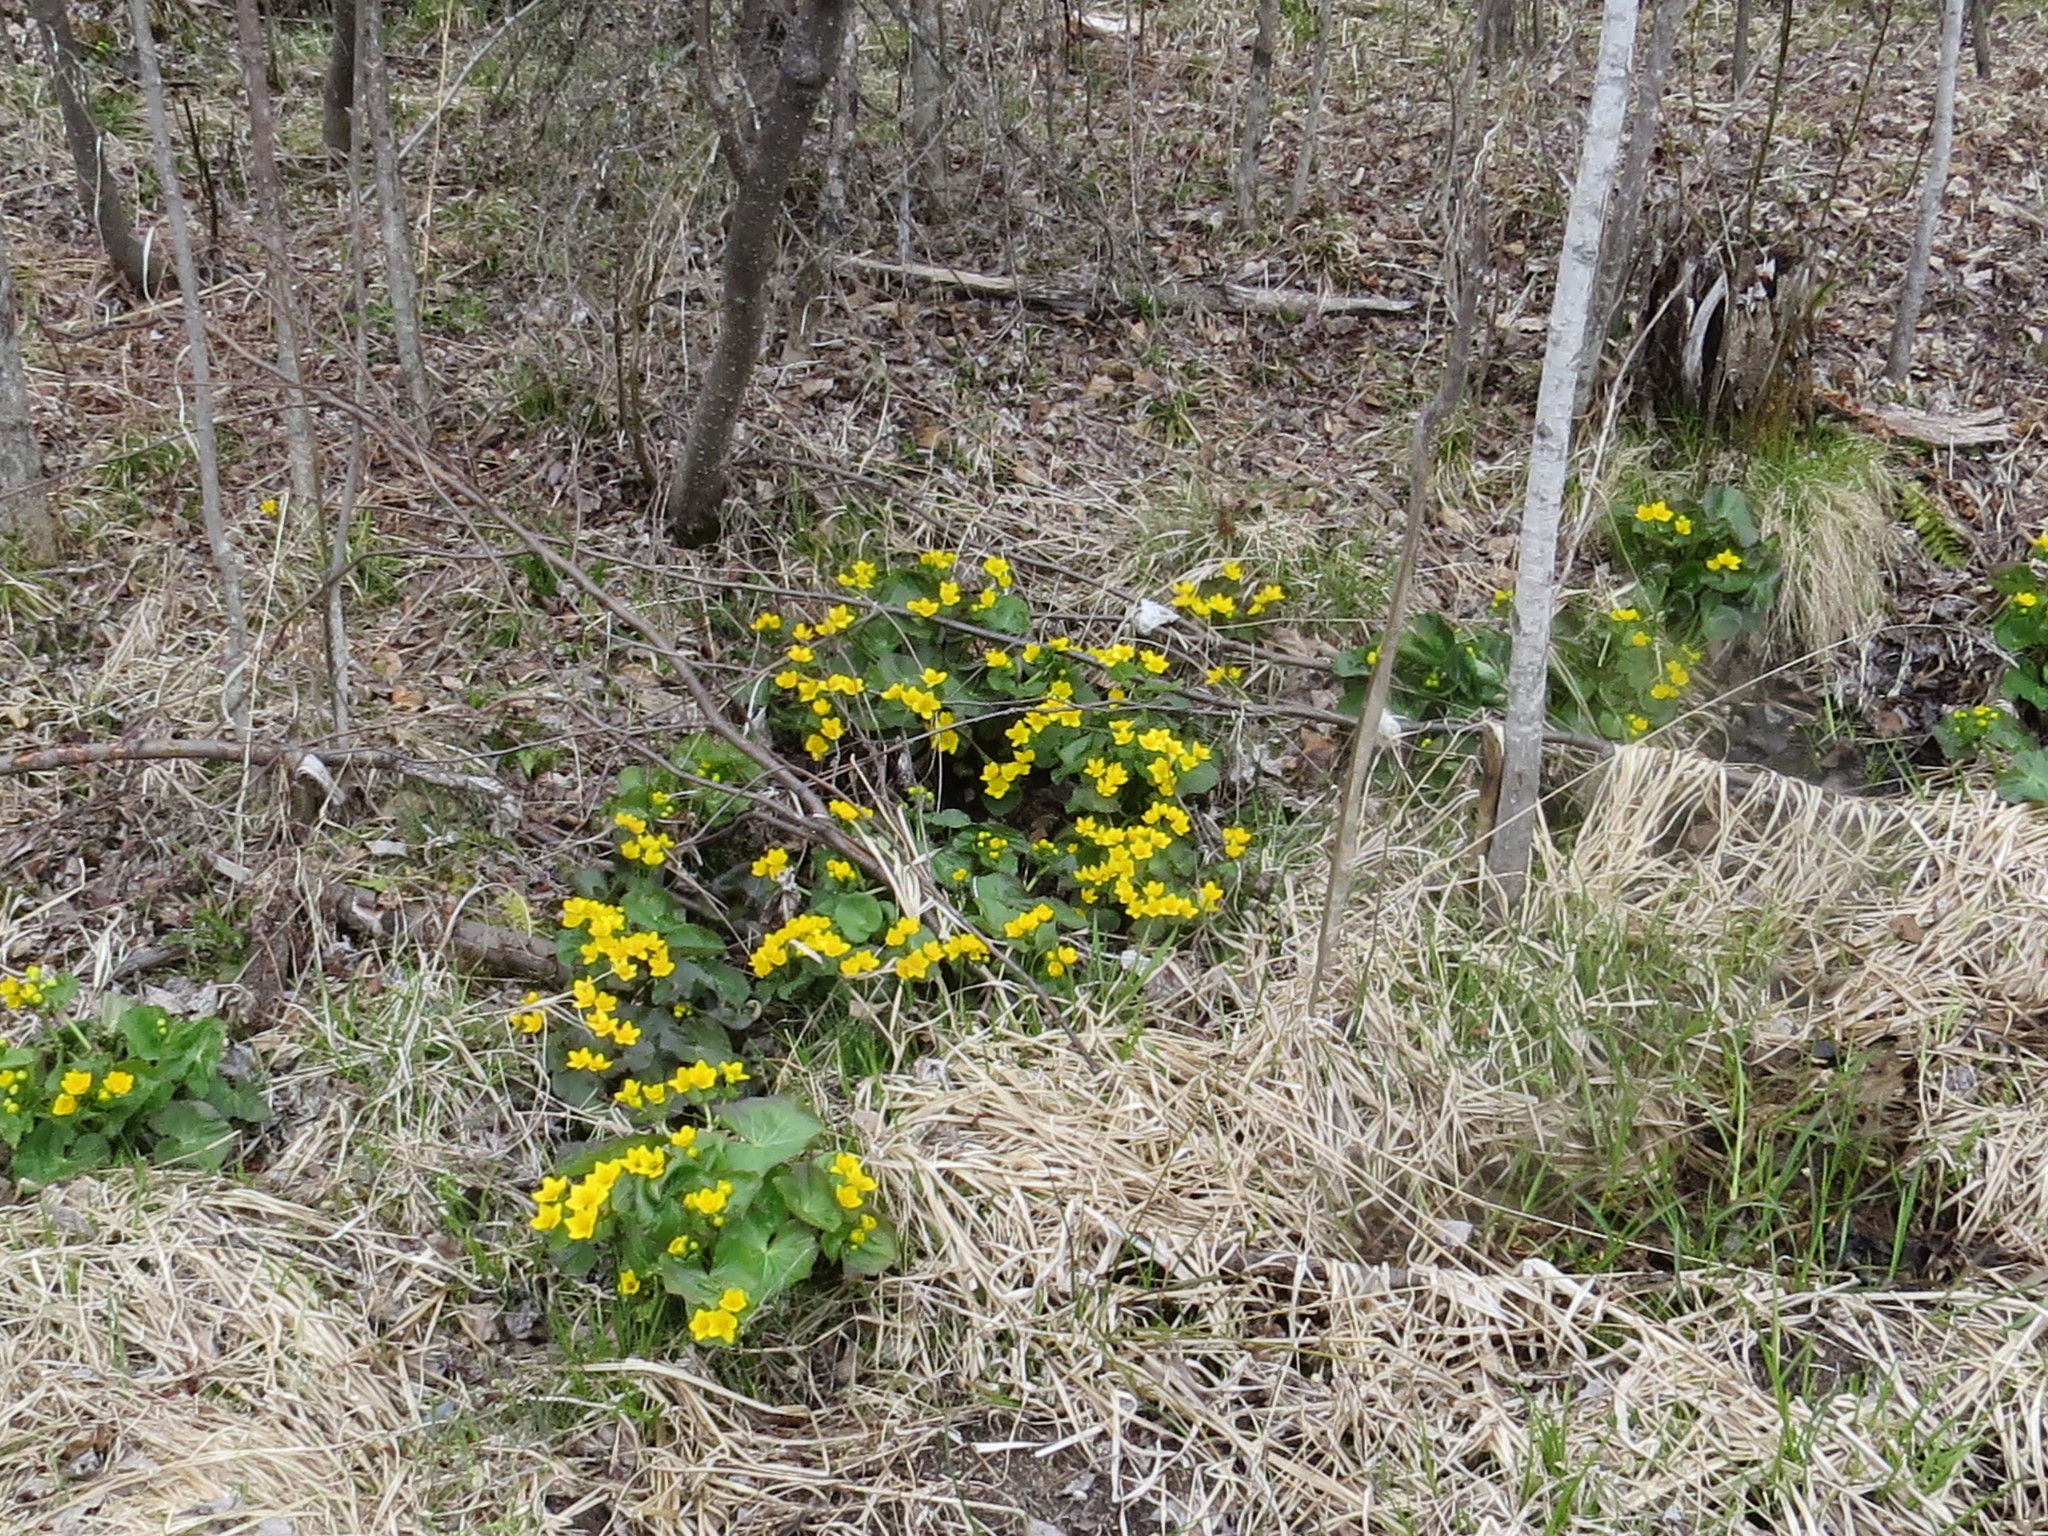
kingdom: Plantae
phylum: Tracheophyta
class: Magnoliopsida
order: Ranunculales
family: Ranunculaceae
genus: Caltha
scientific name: Caltha palustris
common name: Marsh marigold
